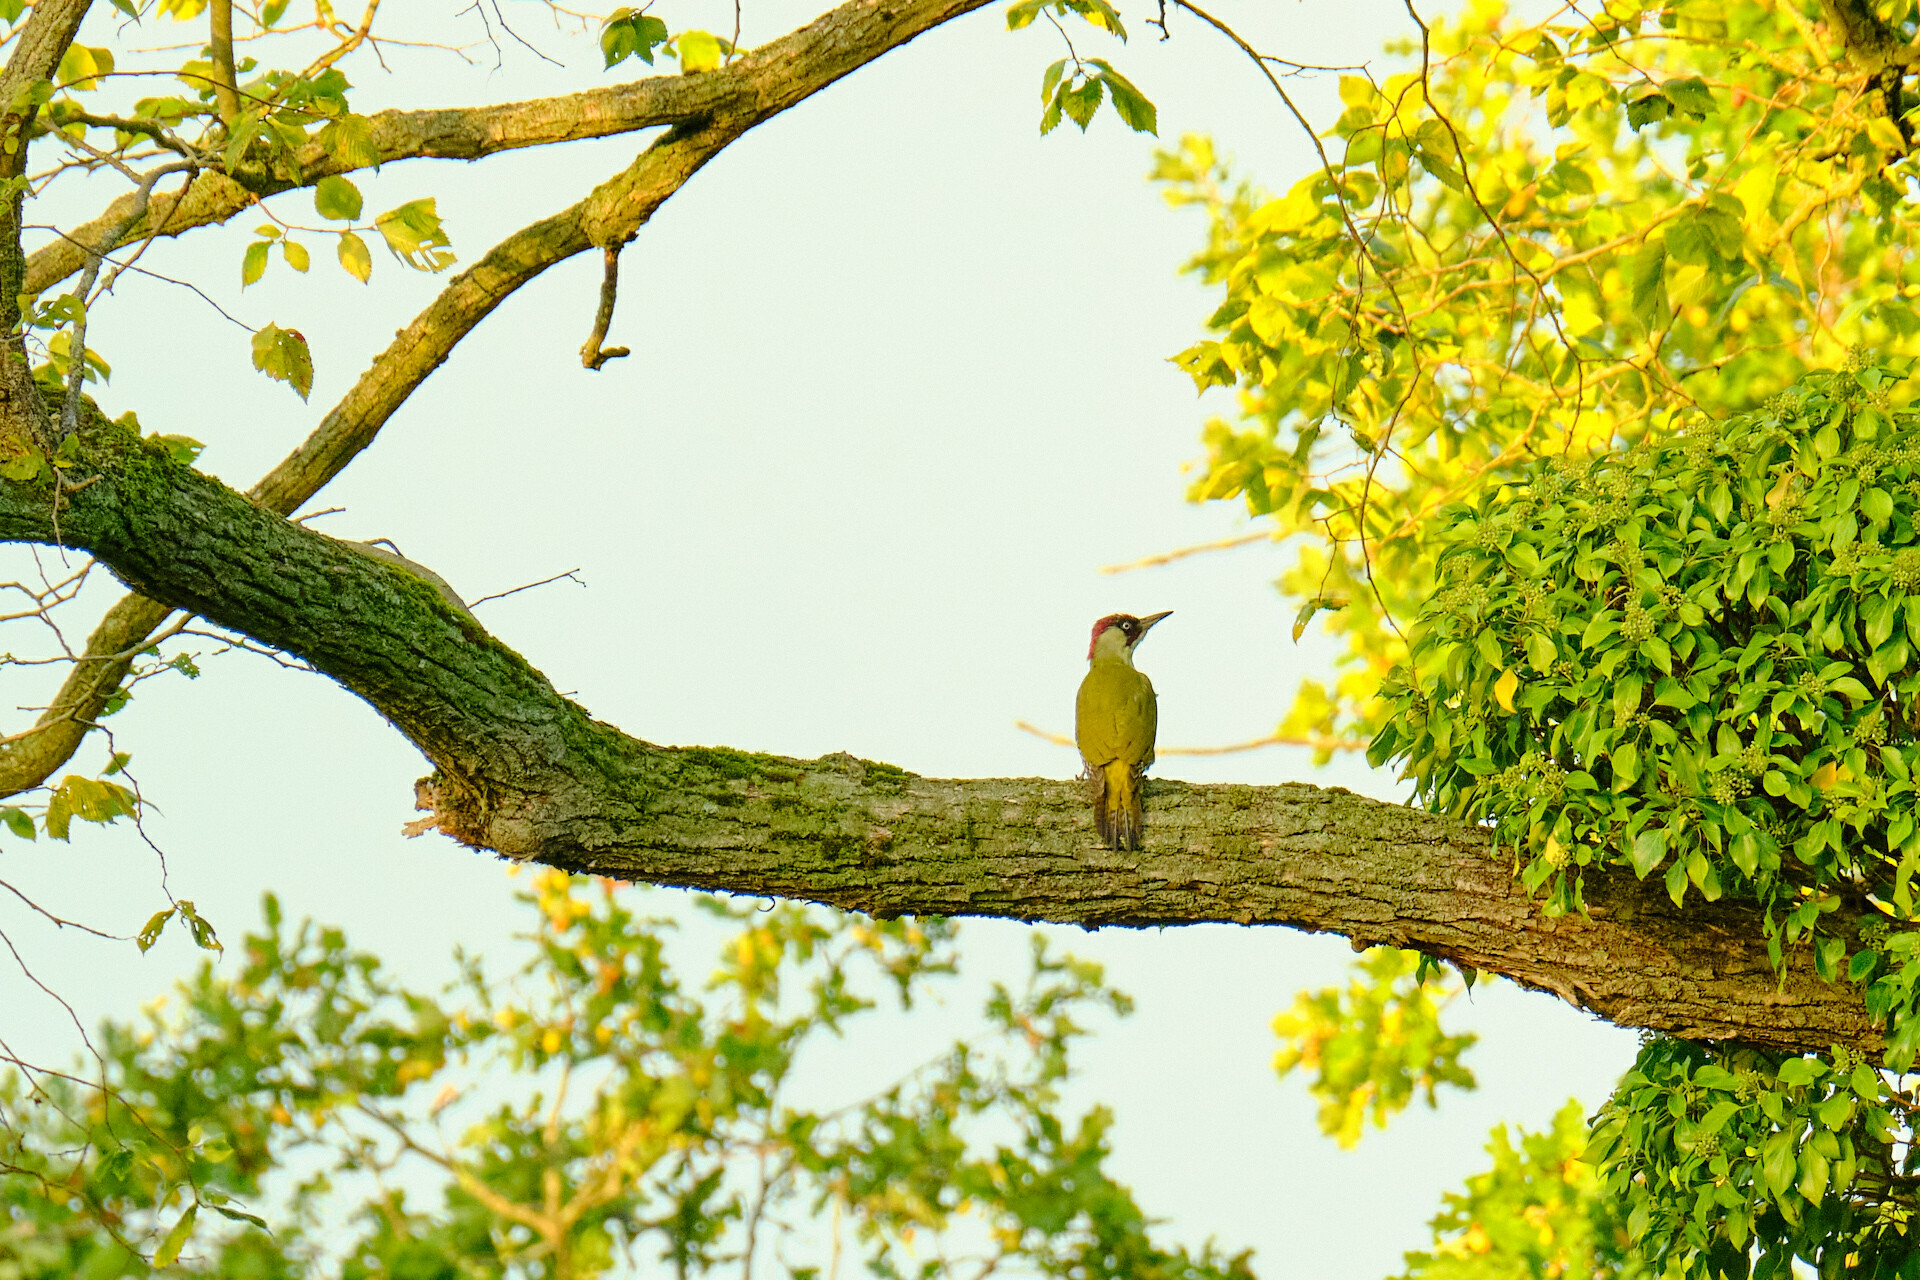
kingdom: Animalia
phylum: Chordata
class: Aves
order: Piciformes
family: Picidae
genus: Picus
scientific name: Picus viridis
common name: European green woodpecker
